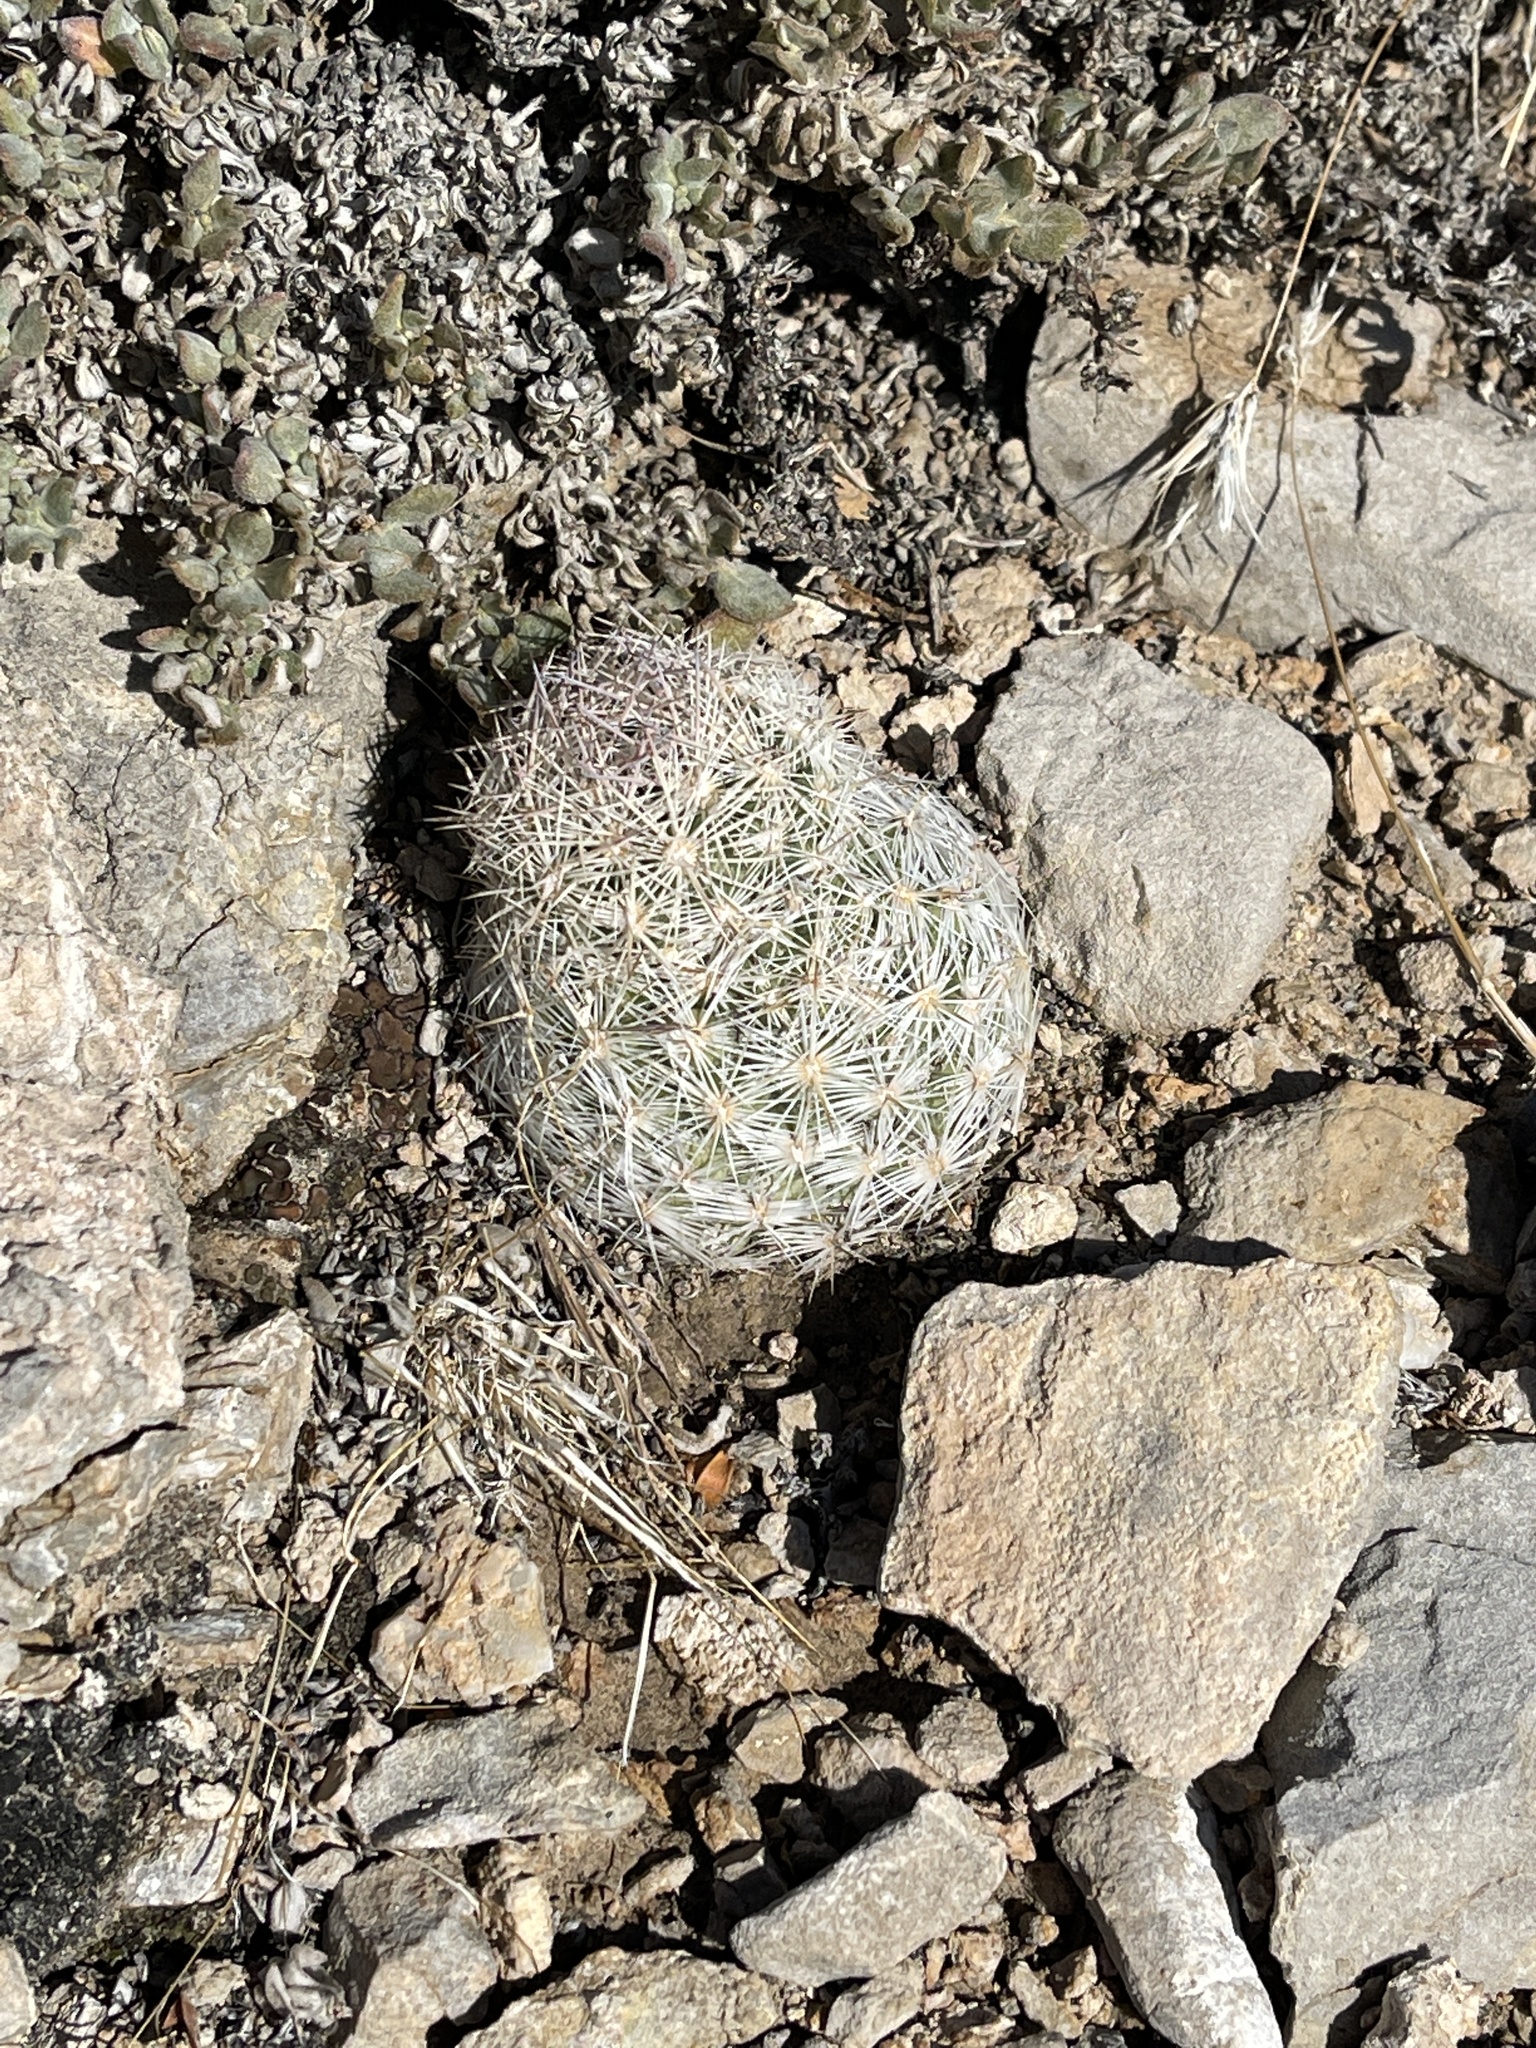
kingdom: Plantae
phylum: Tracheophyta
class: Magnoliopsida
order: Caryophyllales
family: Cactaceae
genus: Pelecyphora
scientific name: Pelecyphora vivipara
